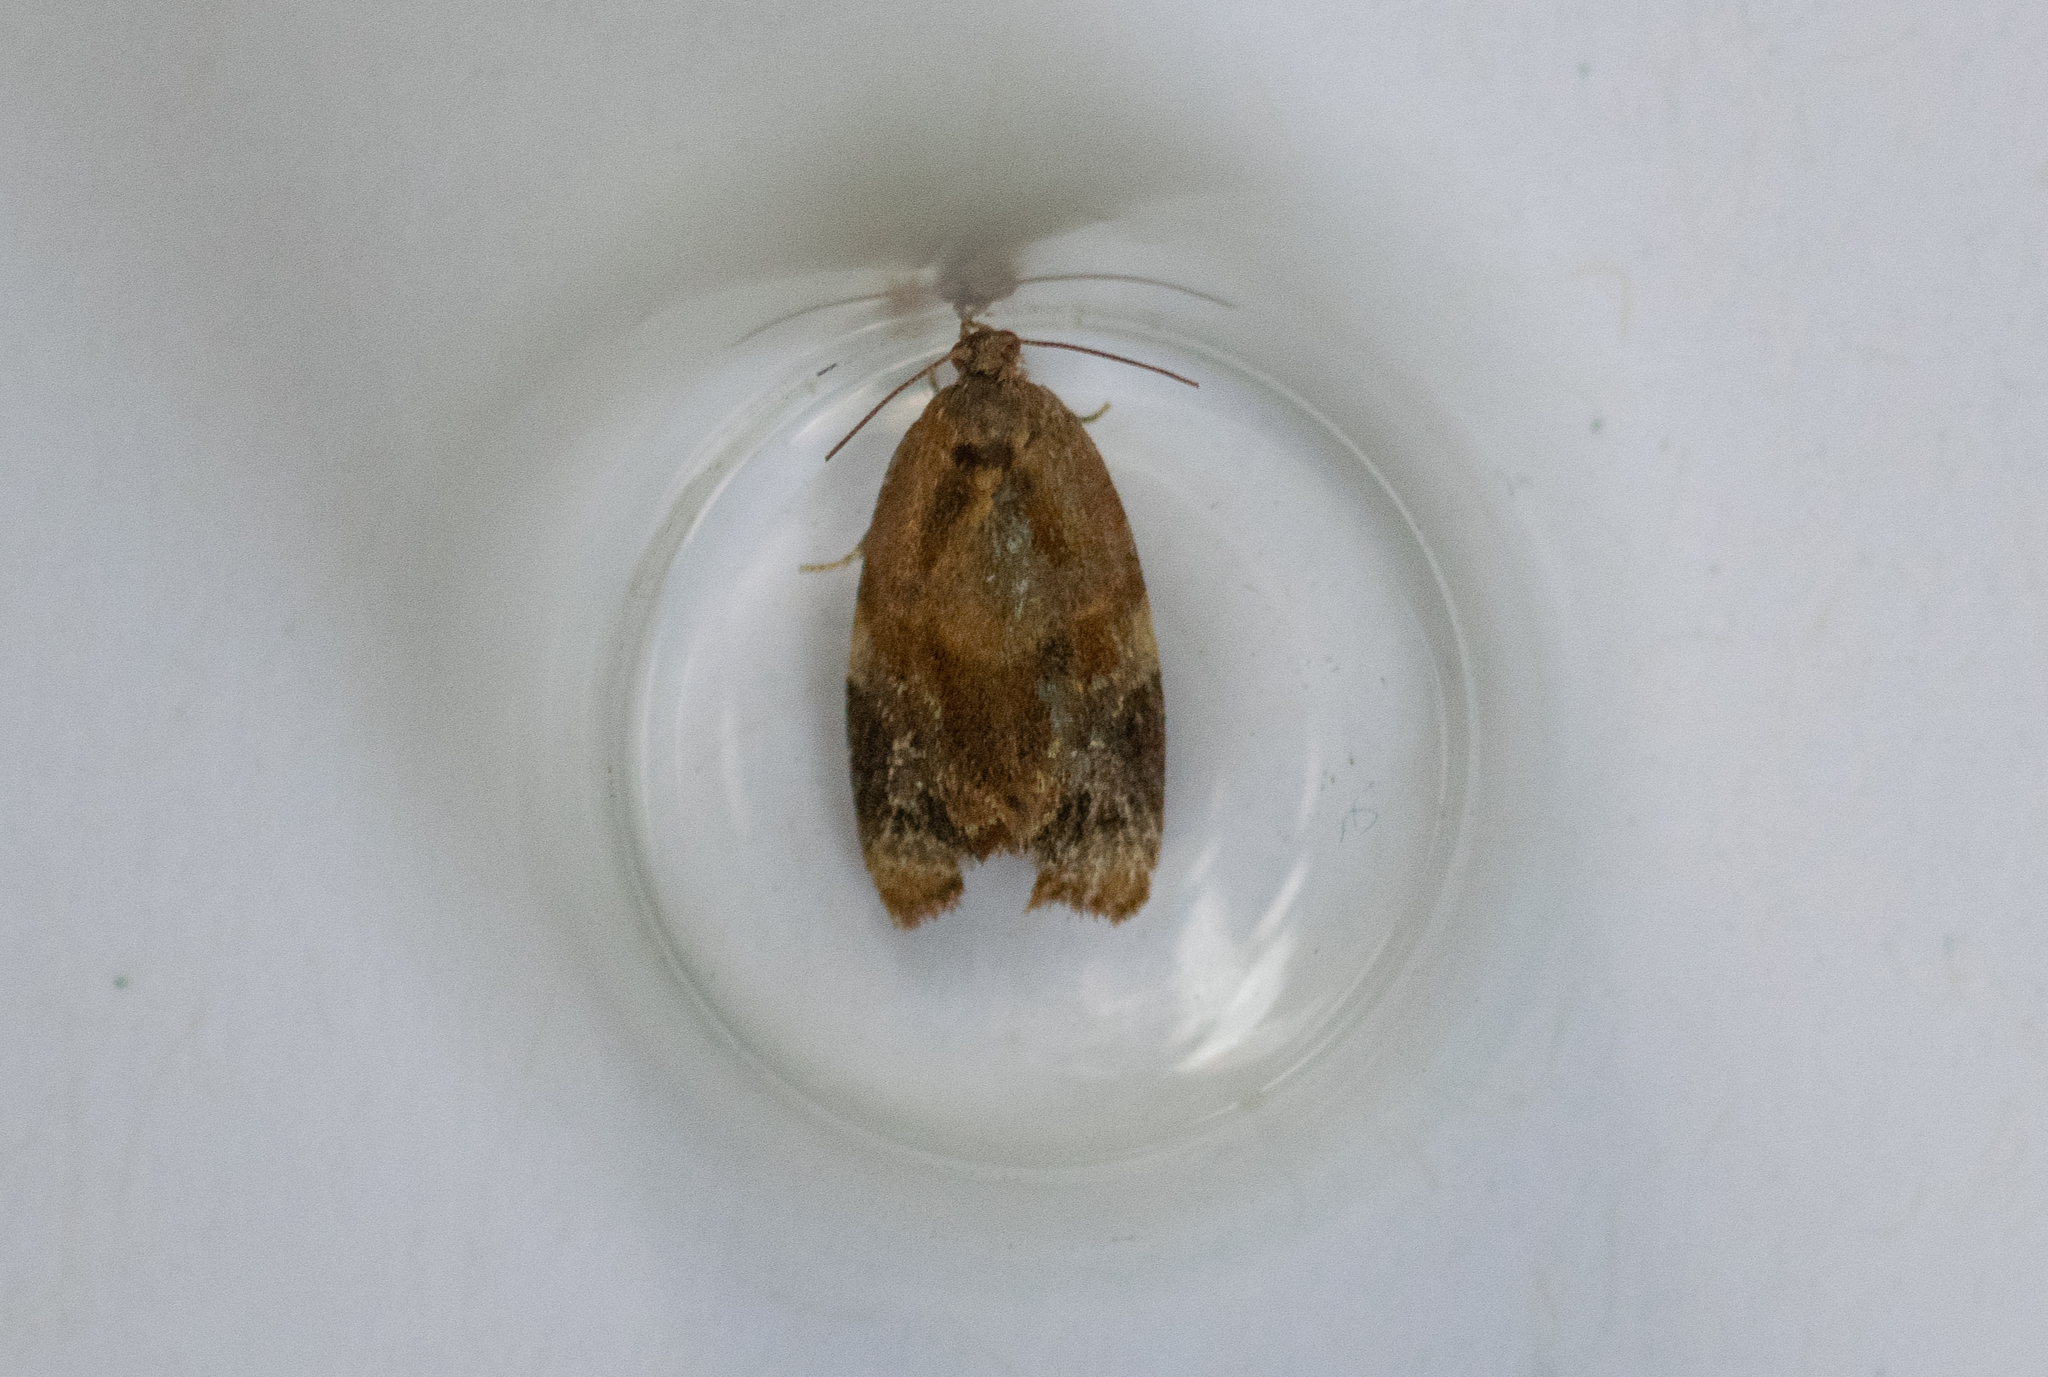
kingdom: Animalia
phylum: Arthropoda
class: Insecta
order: Lepidoptera
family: Tortricidae
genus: Ditula
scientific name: Ditula angustiorana
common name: Red-barred tortrix
